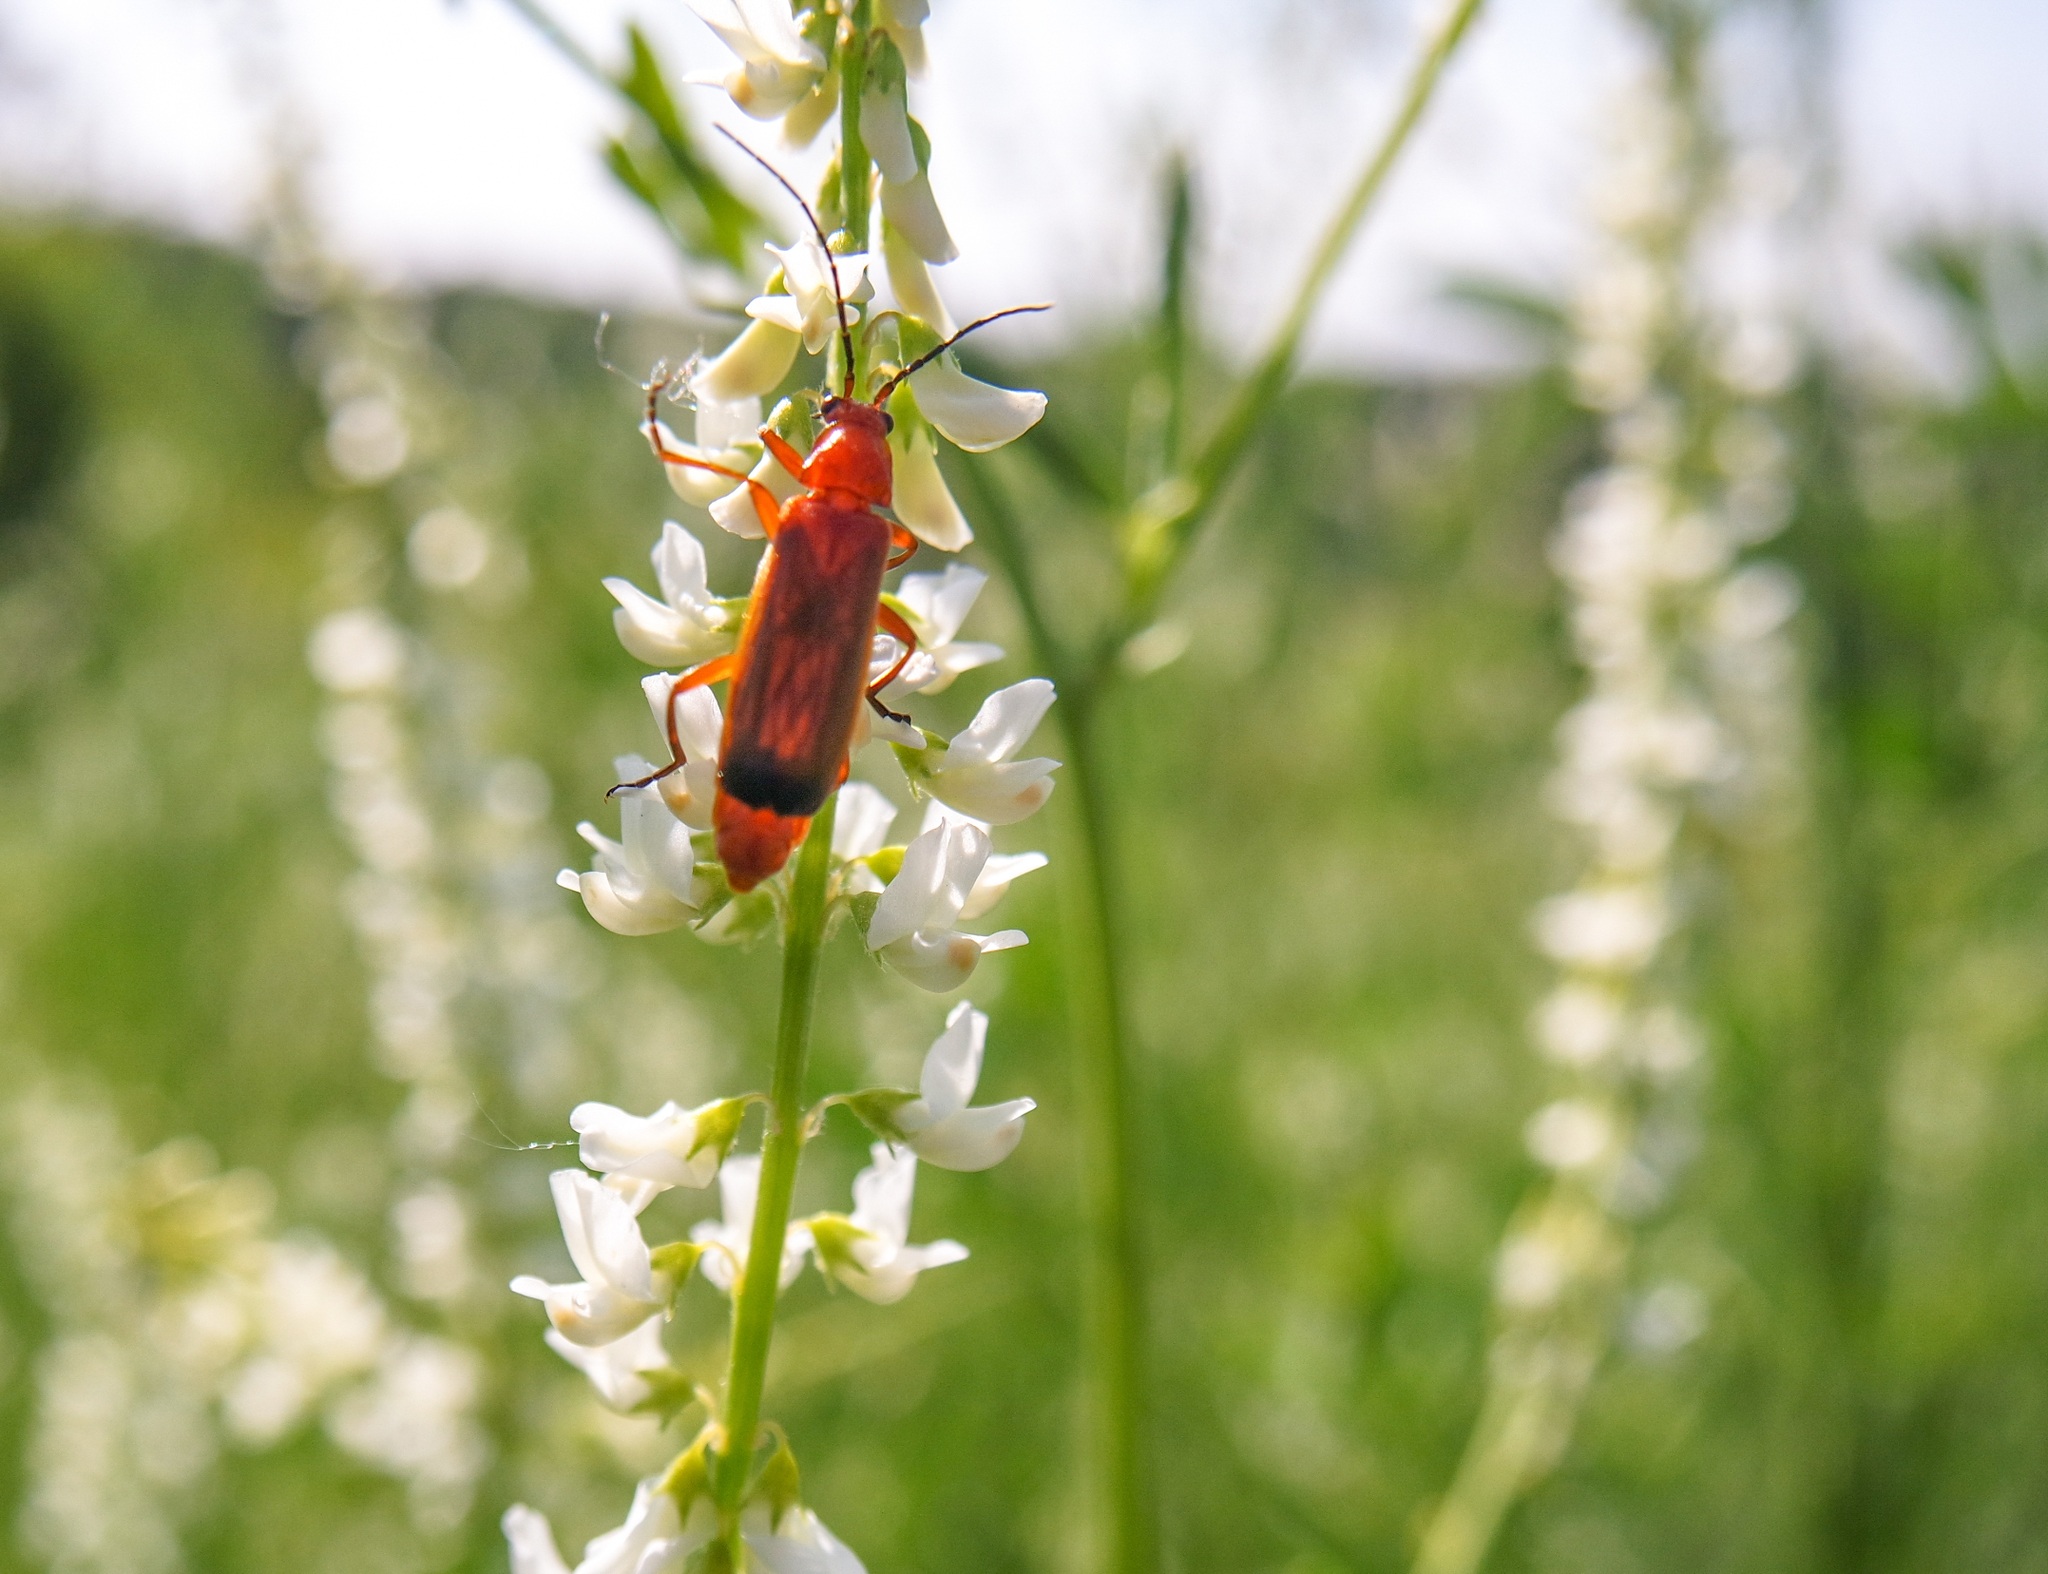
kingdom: Animalia
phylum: Arthropoda
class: Insecta
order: Coleoptera
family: Cantharidae
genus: Rhagonycha
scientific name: Rhagonycha fulva
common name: Common red soldier beetle
